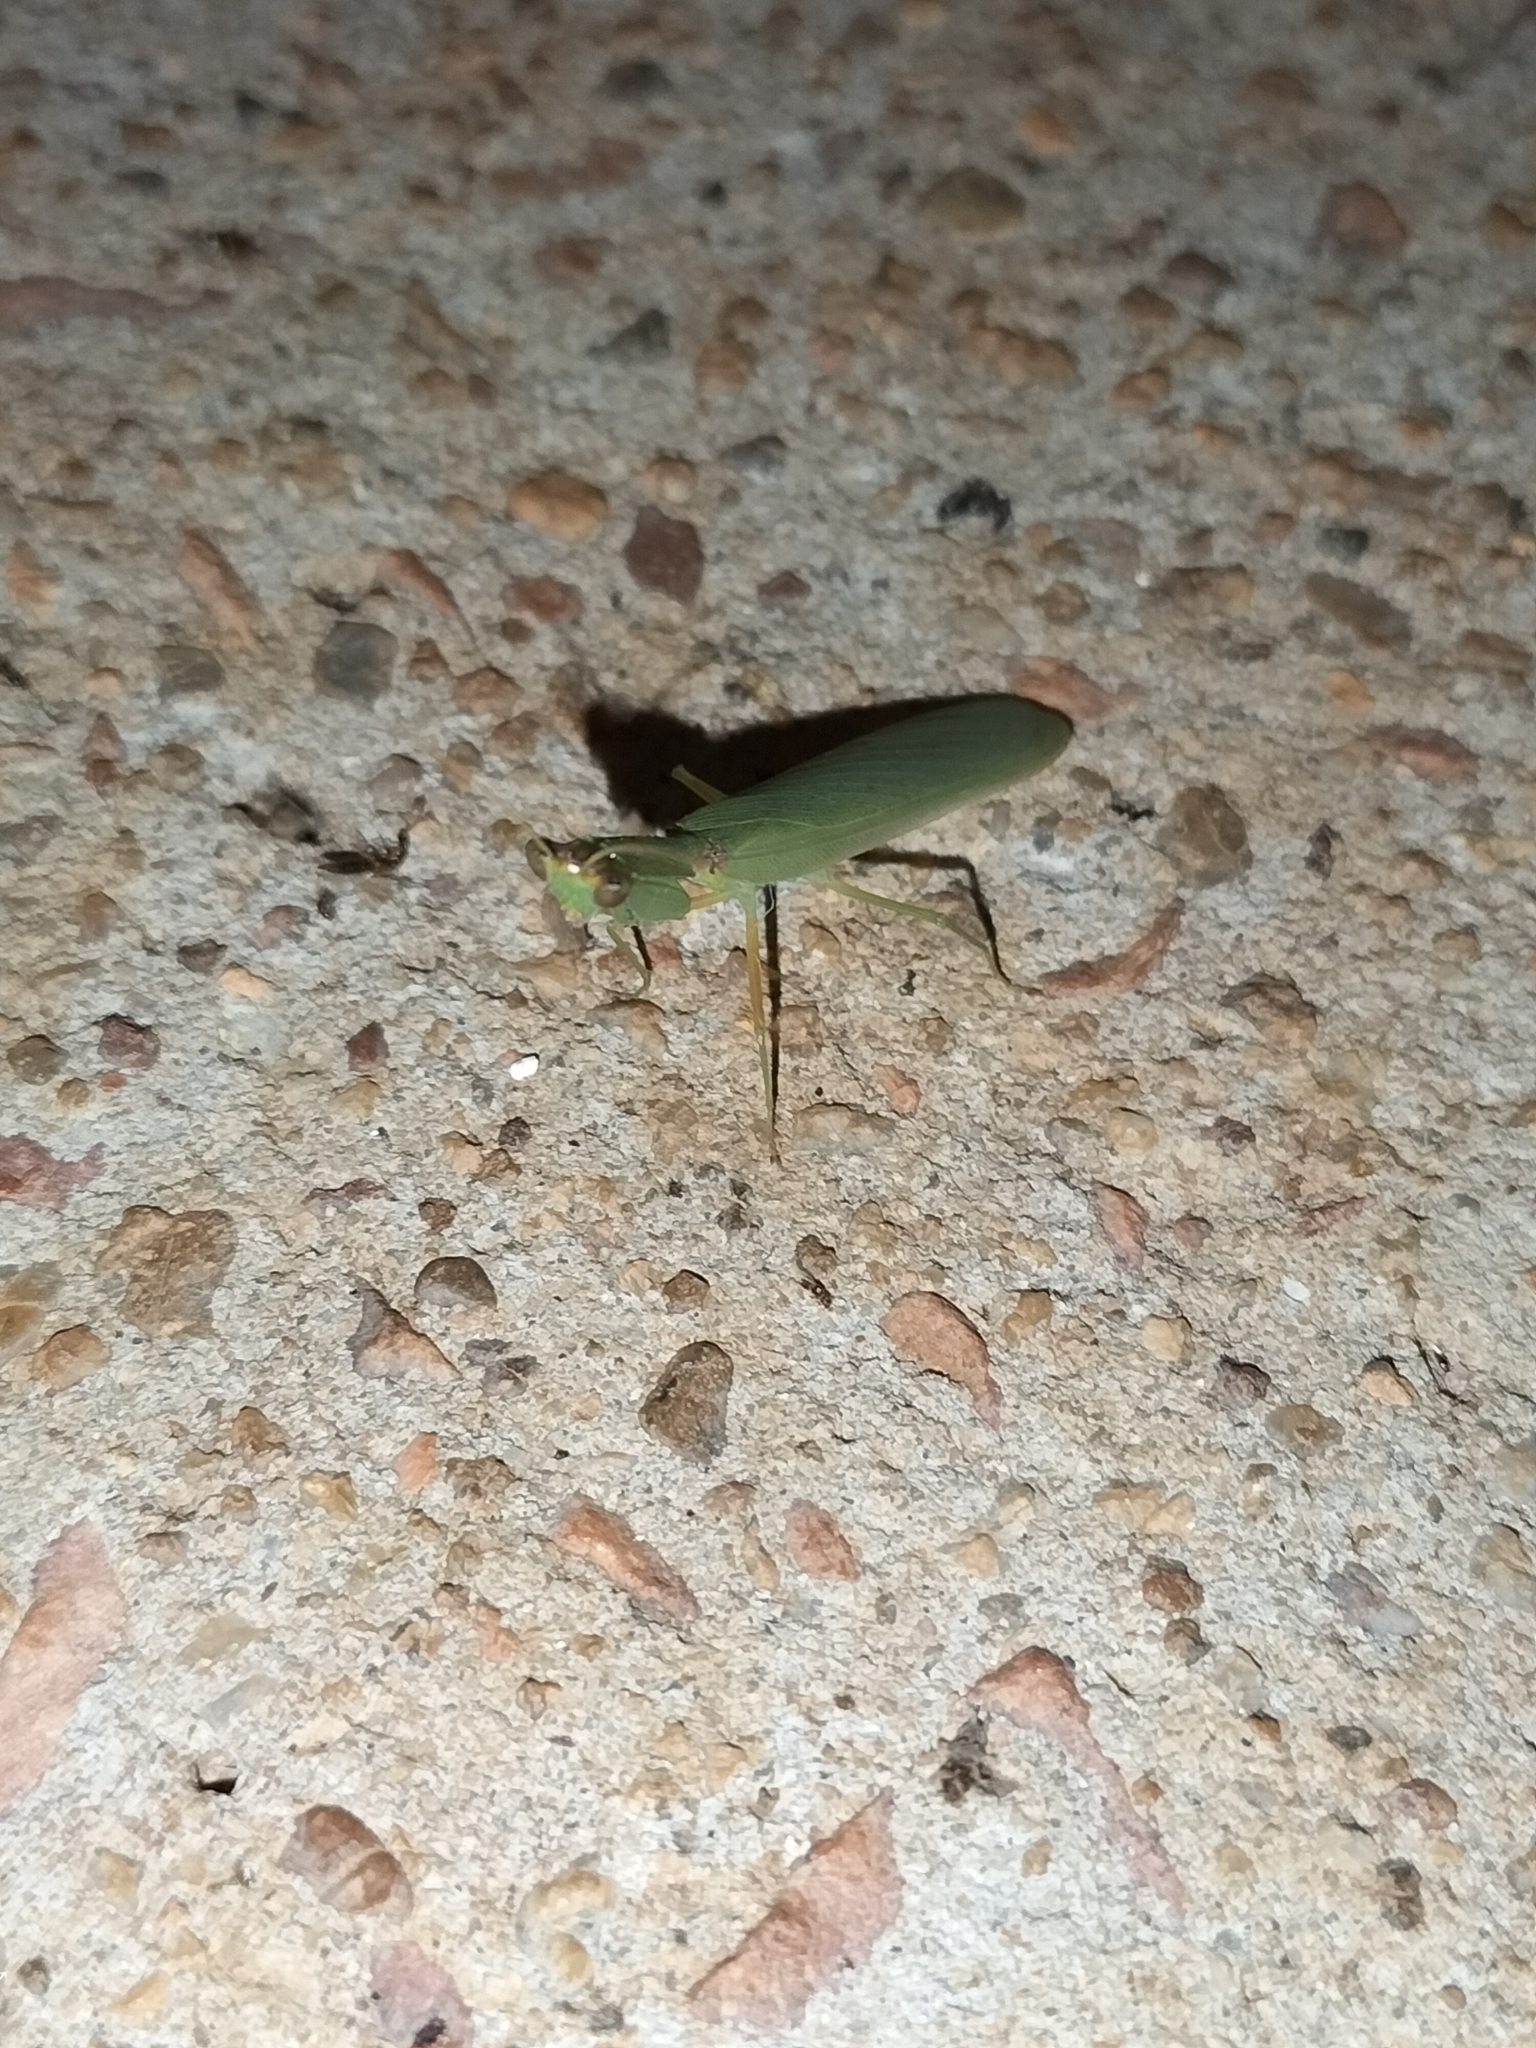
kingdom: Animalia
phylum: Arthropoda
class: Insecta
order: Mantodea
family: Mantidae
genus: Orthodera
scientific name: Orthodera ministralis
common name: Mantis
